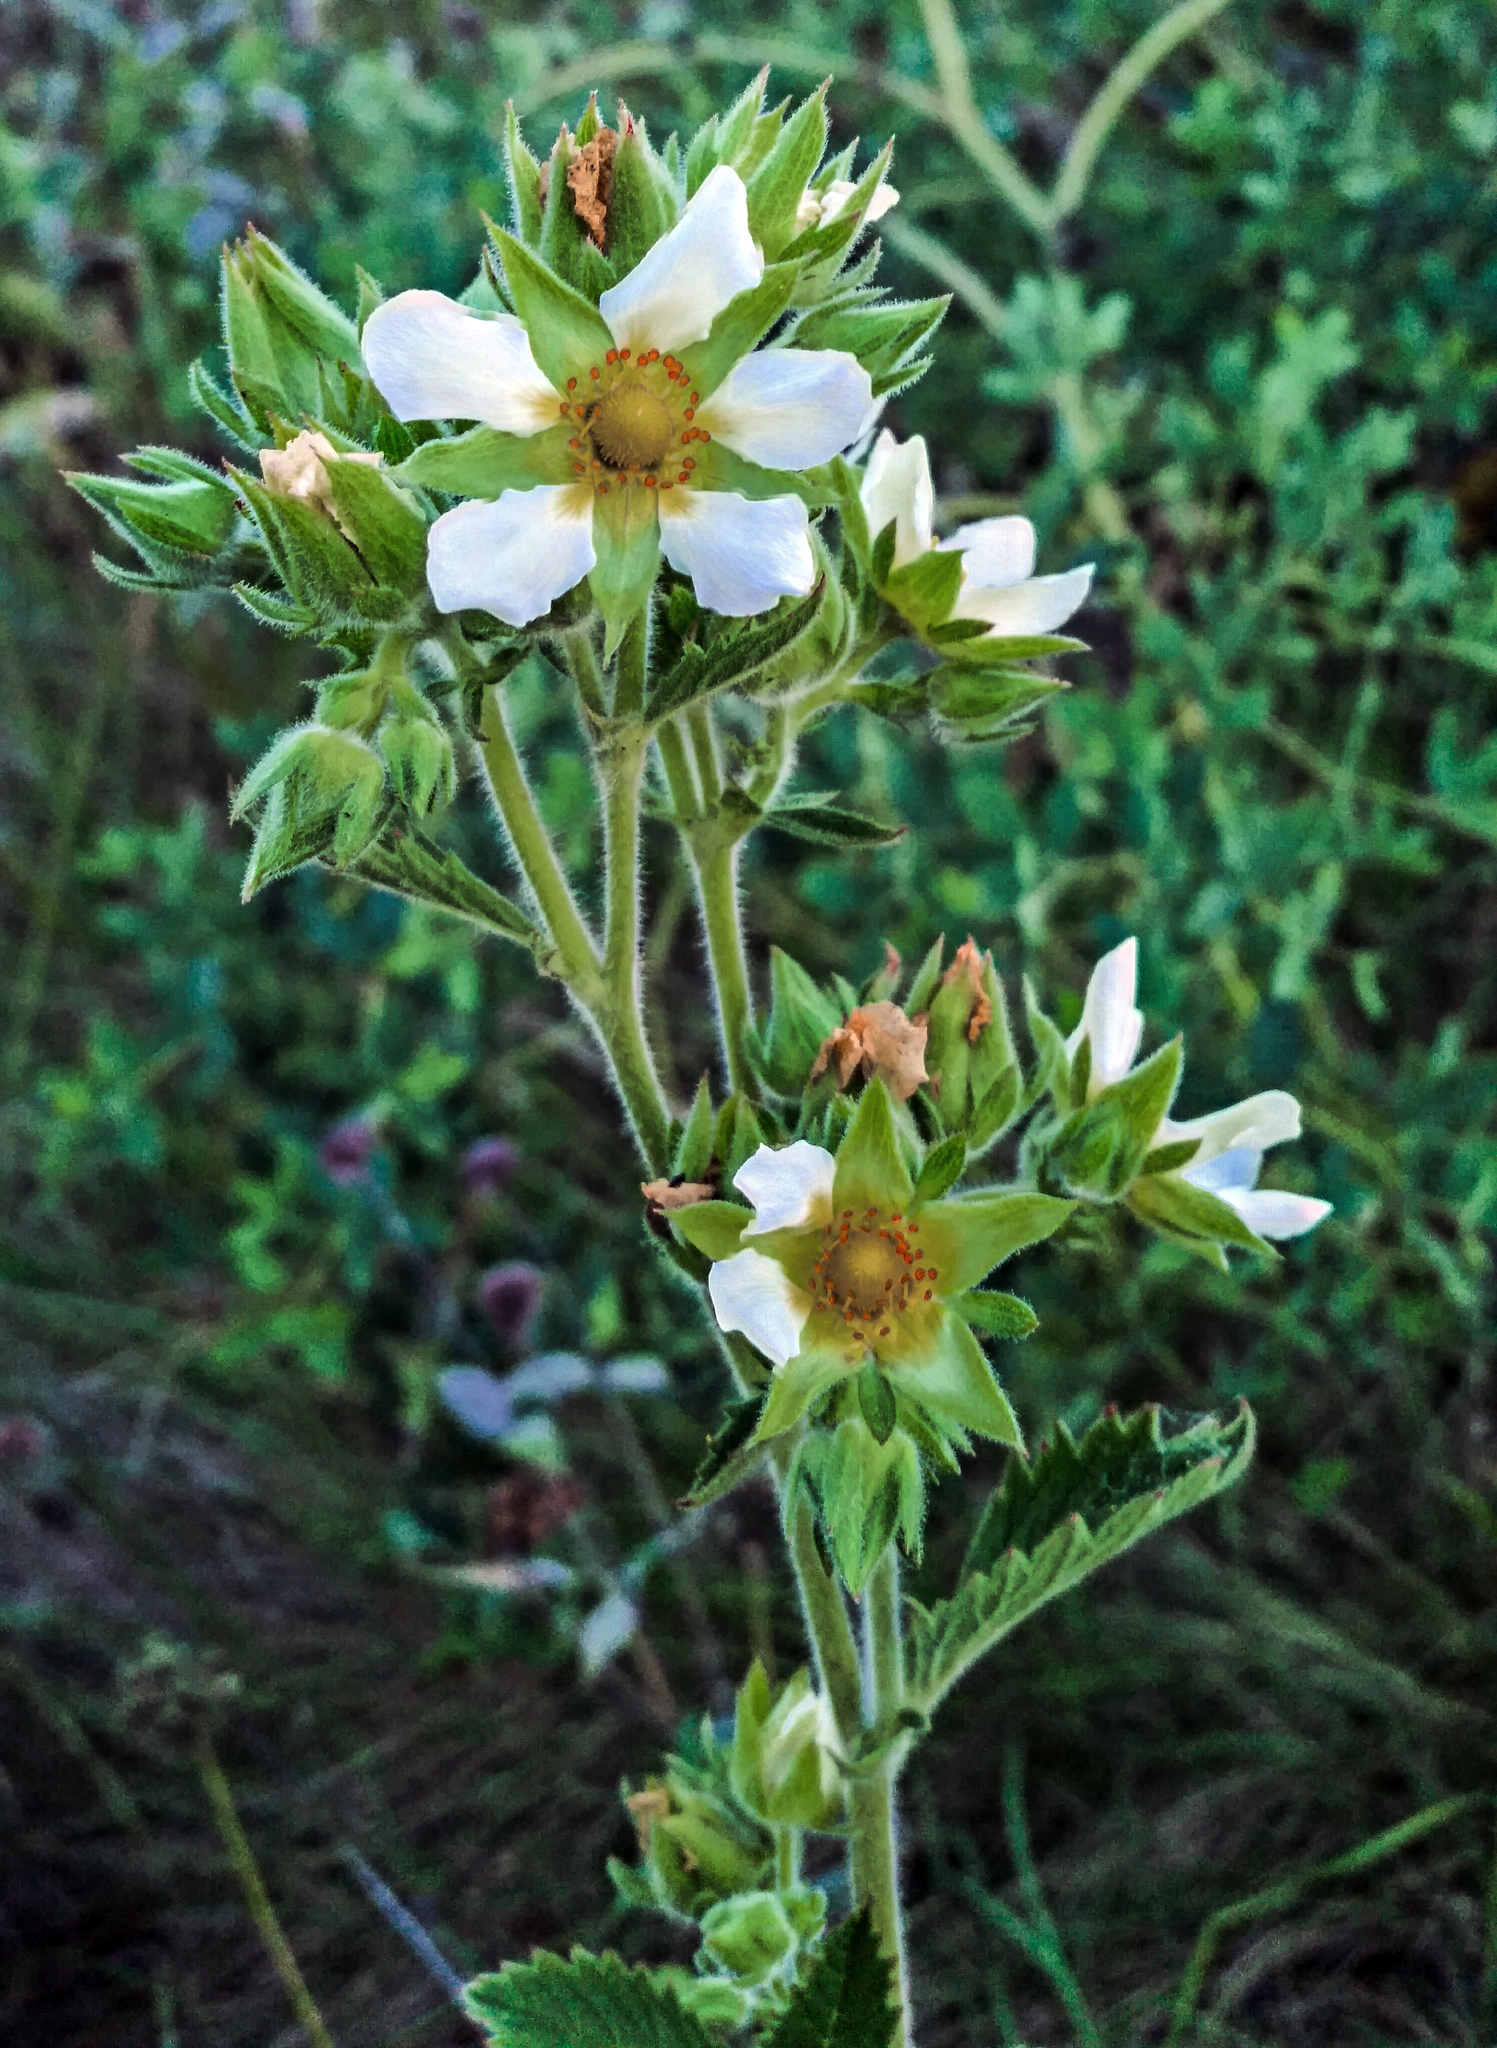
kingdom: Plantae
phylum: Tracheophyta
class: Magnoliopsida
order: Rosales
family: Rosaceae
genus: Drymocallis
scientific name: Drymocallis arguta
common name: Tall cinquefoil
